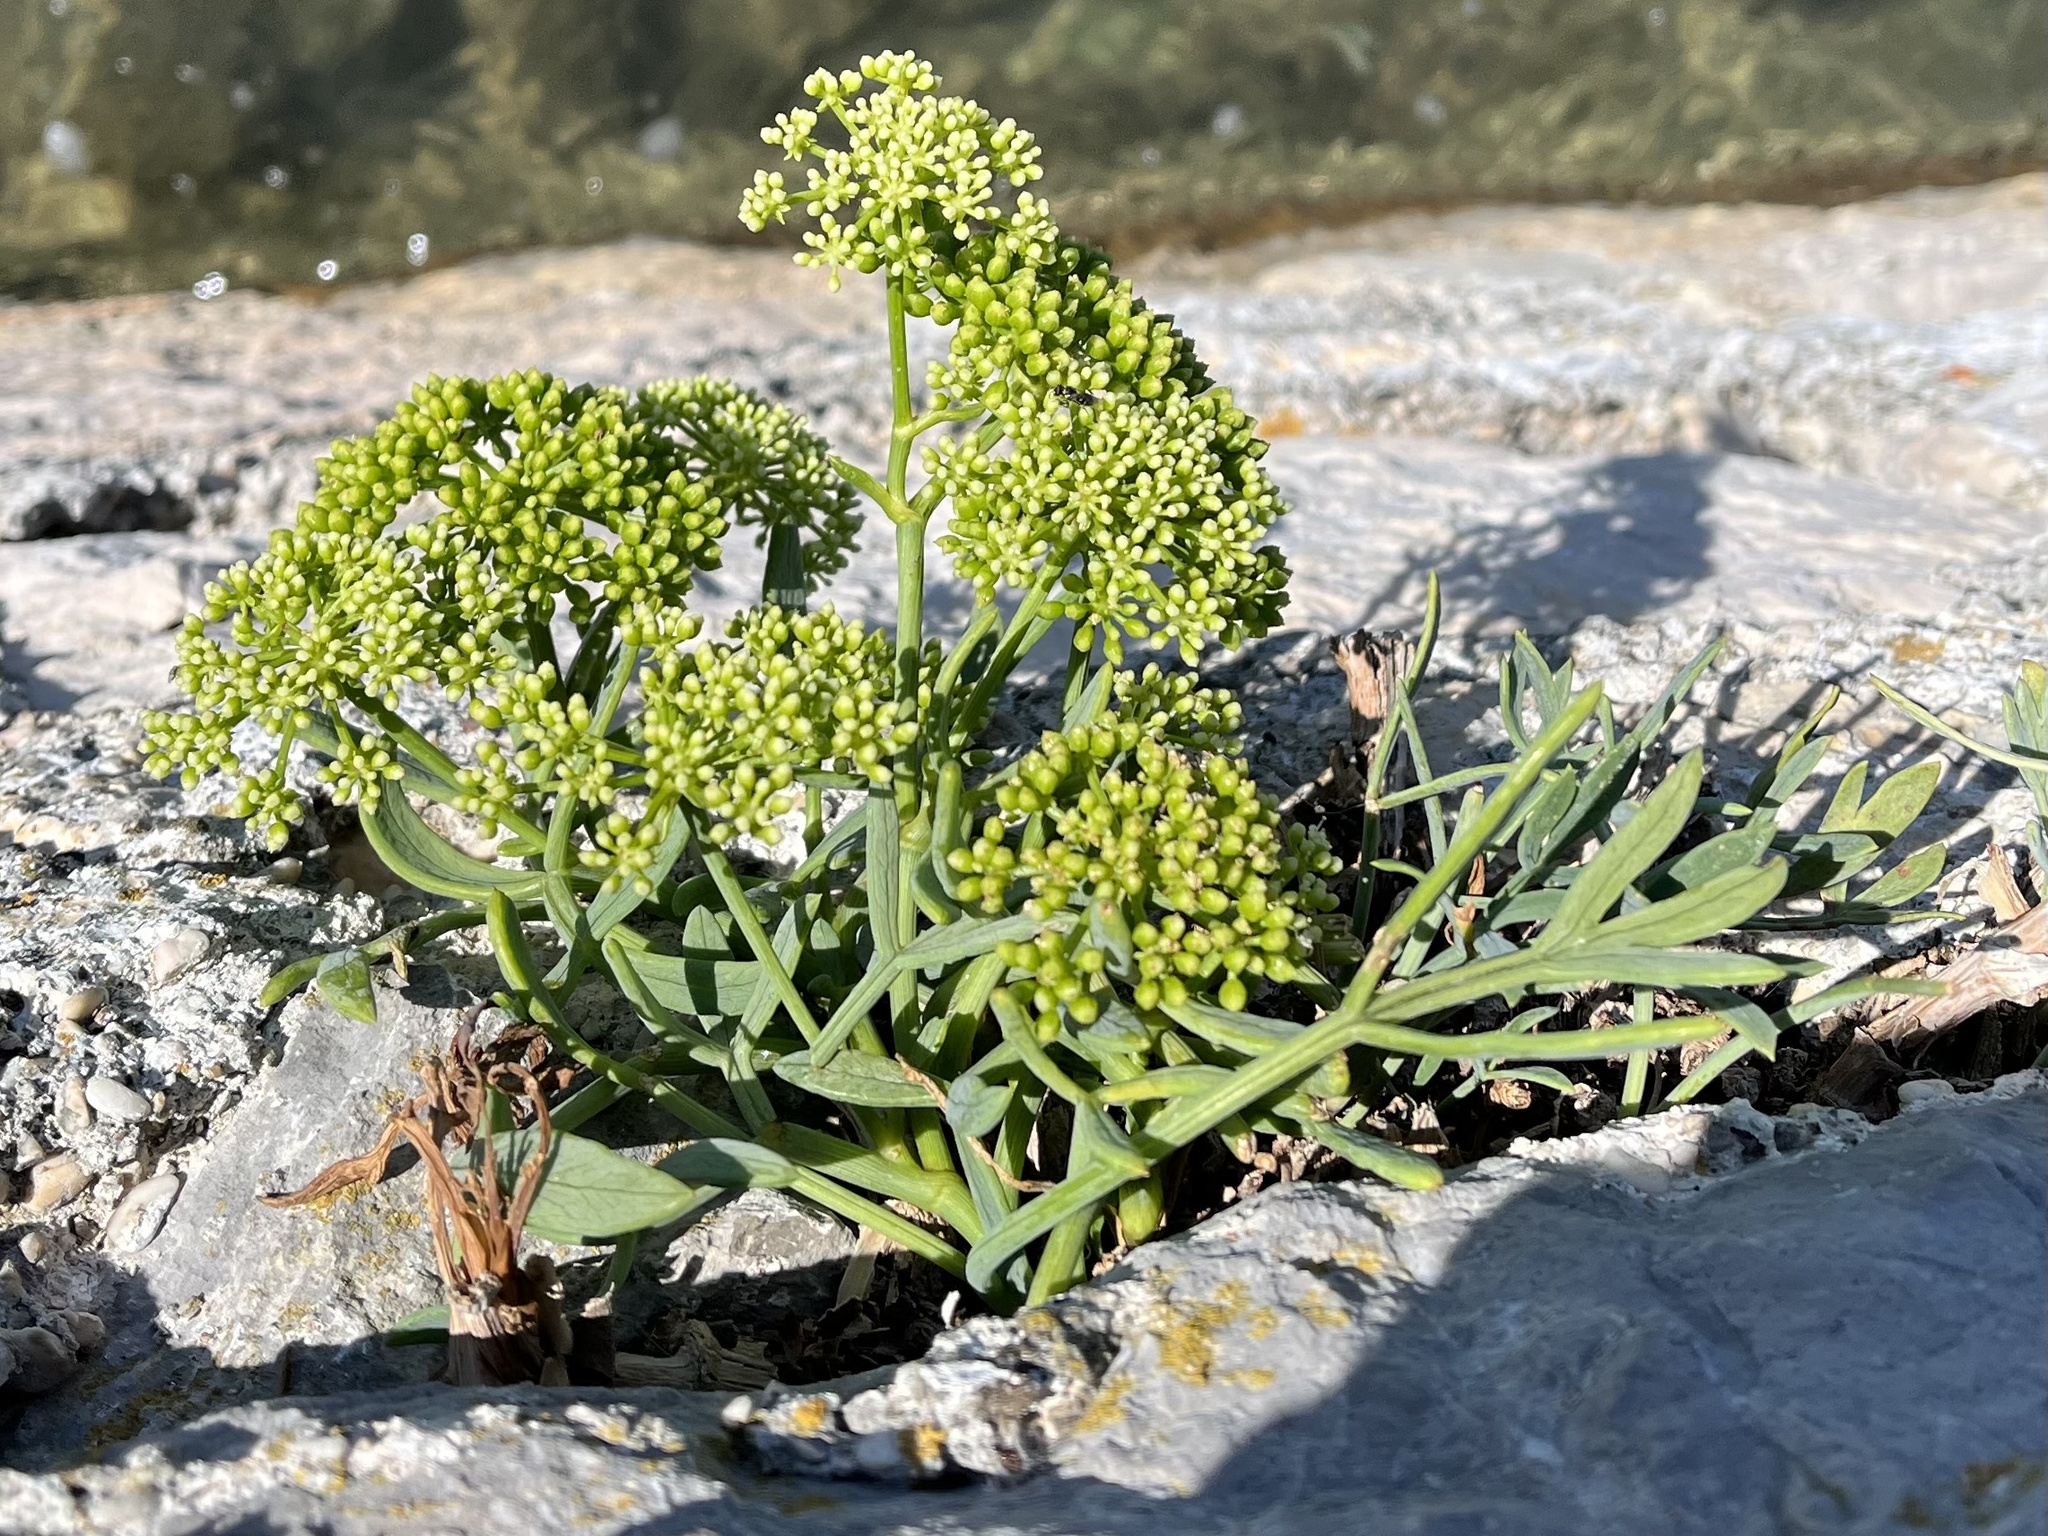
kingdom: Plantae
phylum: Tracheophyta
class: Magnoliopsida
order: Apiales
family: Apiaceae
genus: Crithmum
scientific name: Crithmum maritimum
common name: Rock samphire
